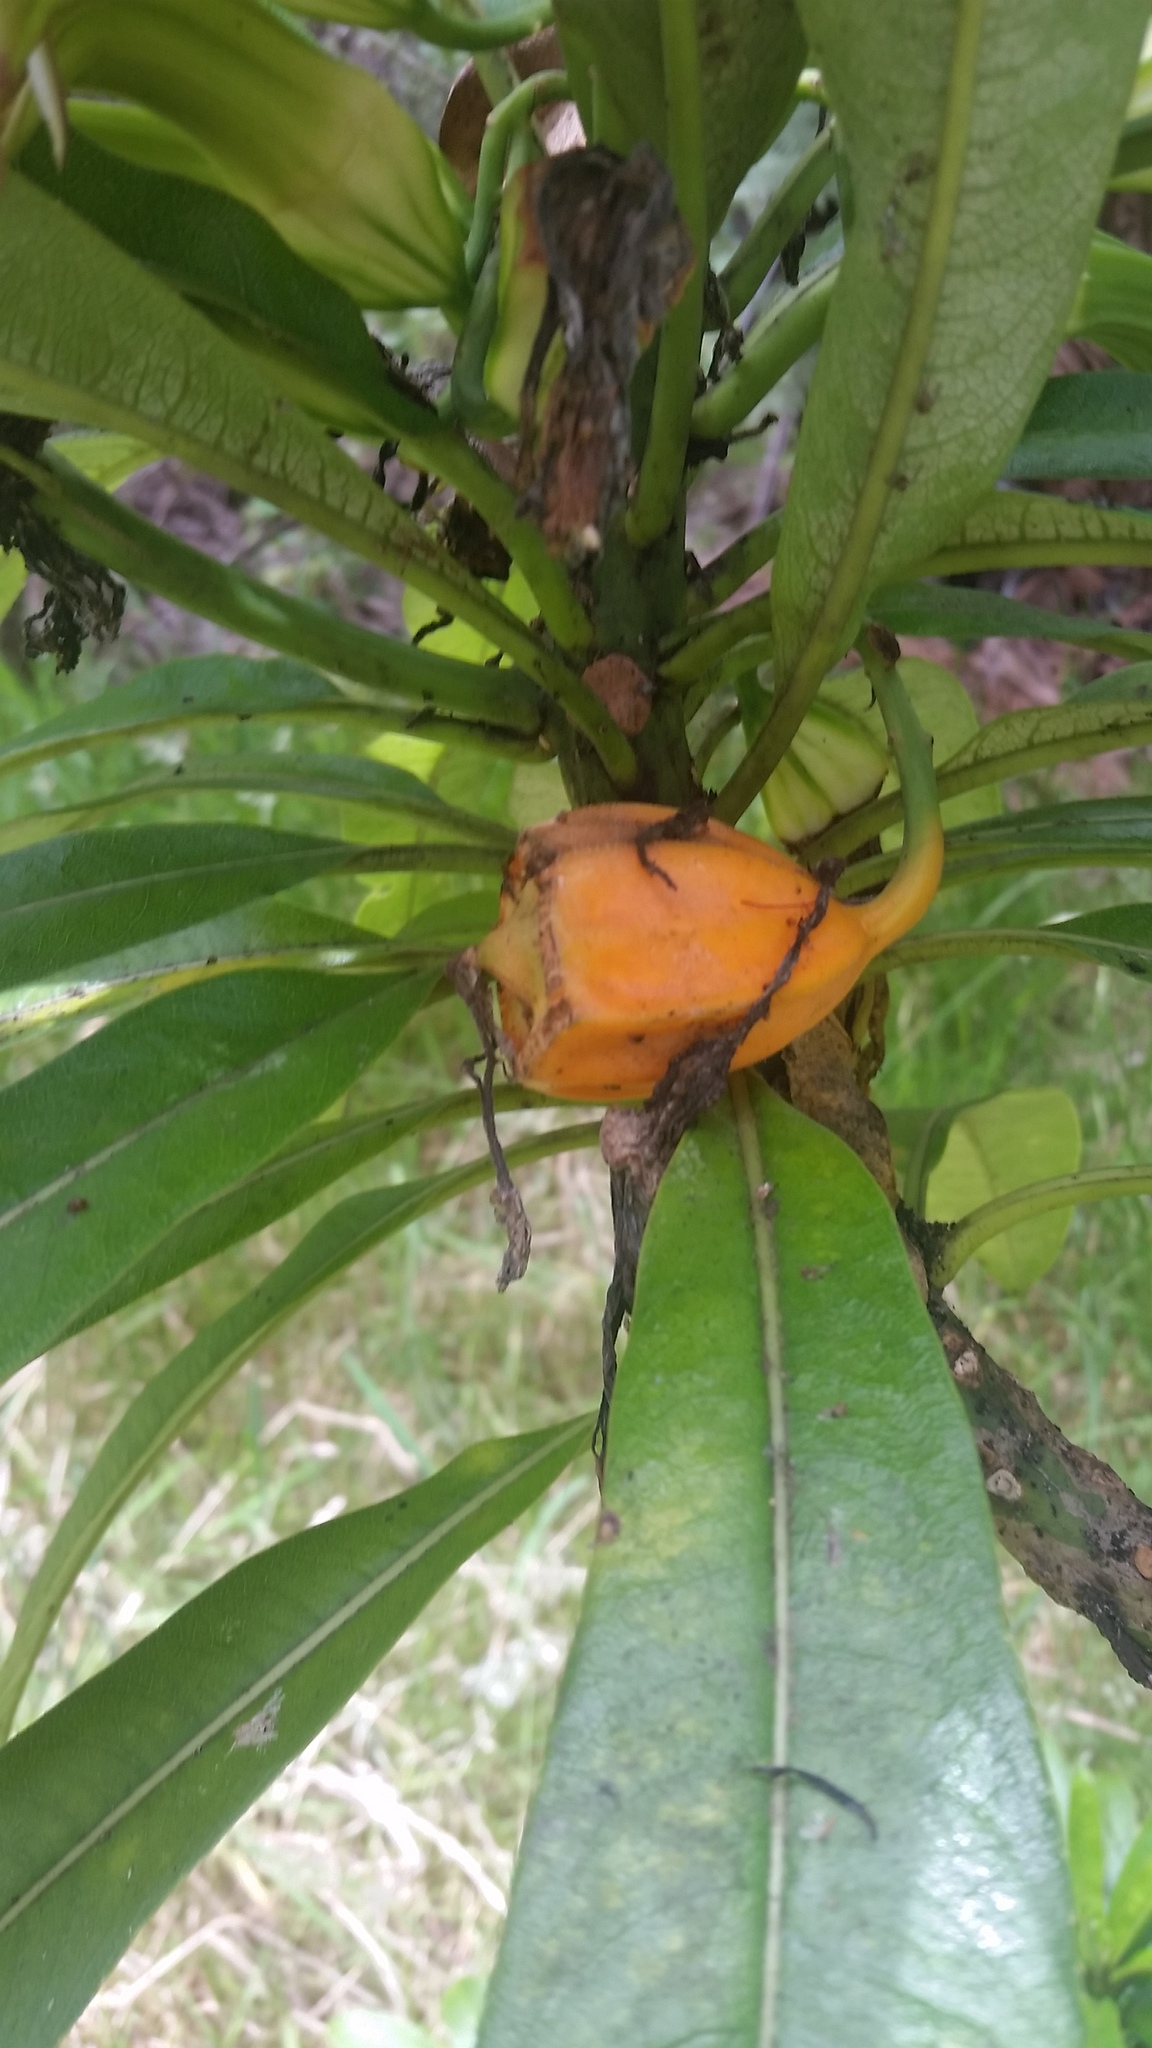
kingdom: Plantae
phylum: Tracheophyta
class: Magnoliopsida
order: Asterales
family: Campanulaceae
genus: Clermontia
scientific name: Clermontia hawaiiensis
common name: Hawaii clermontia
